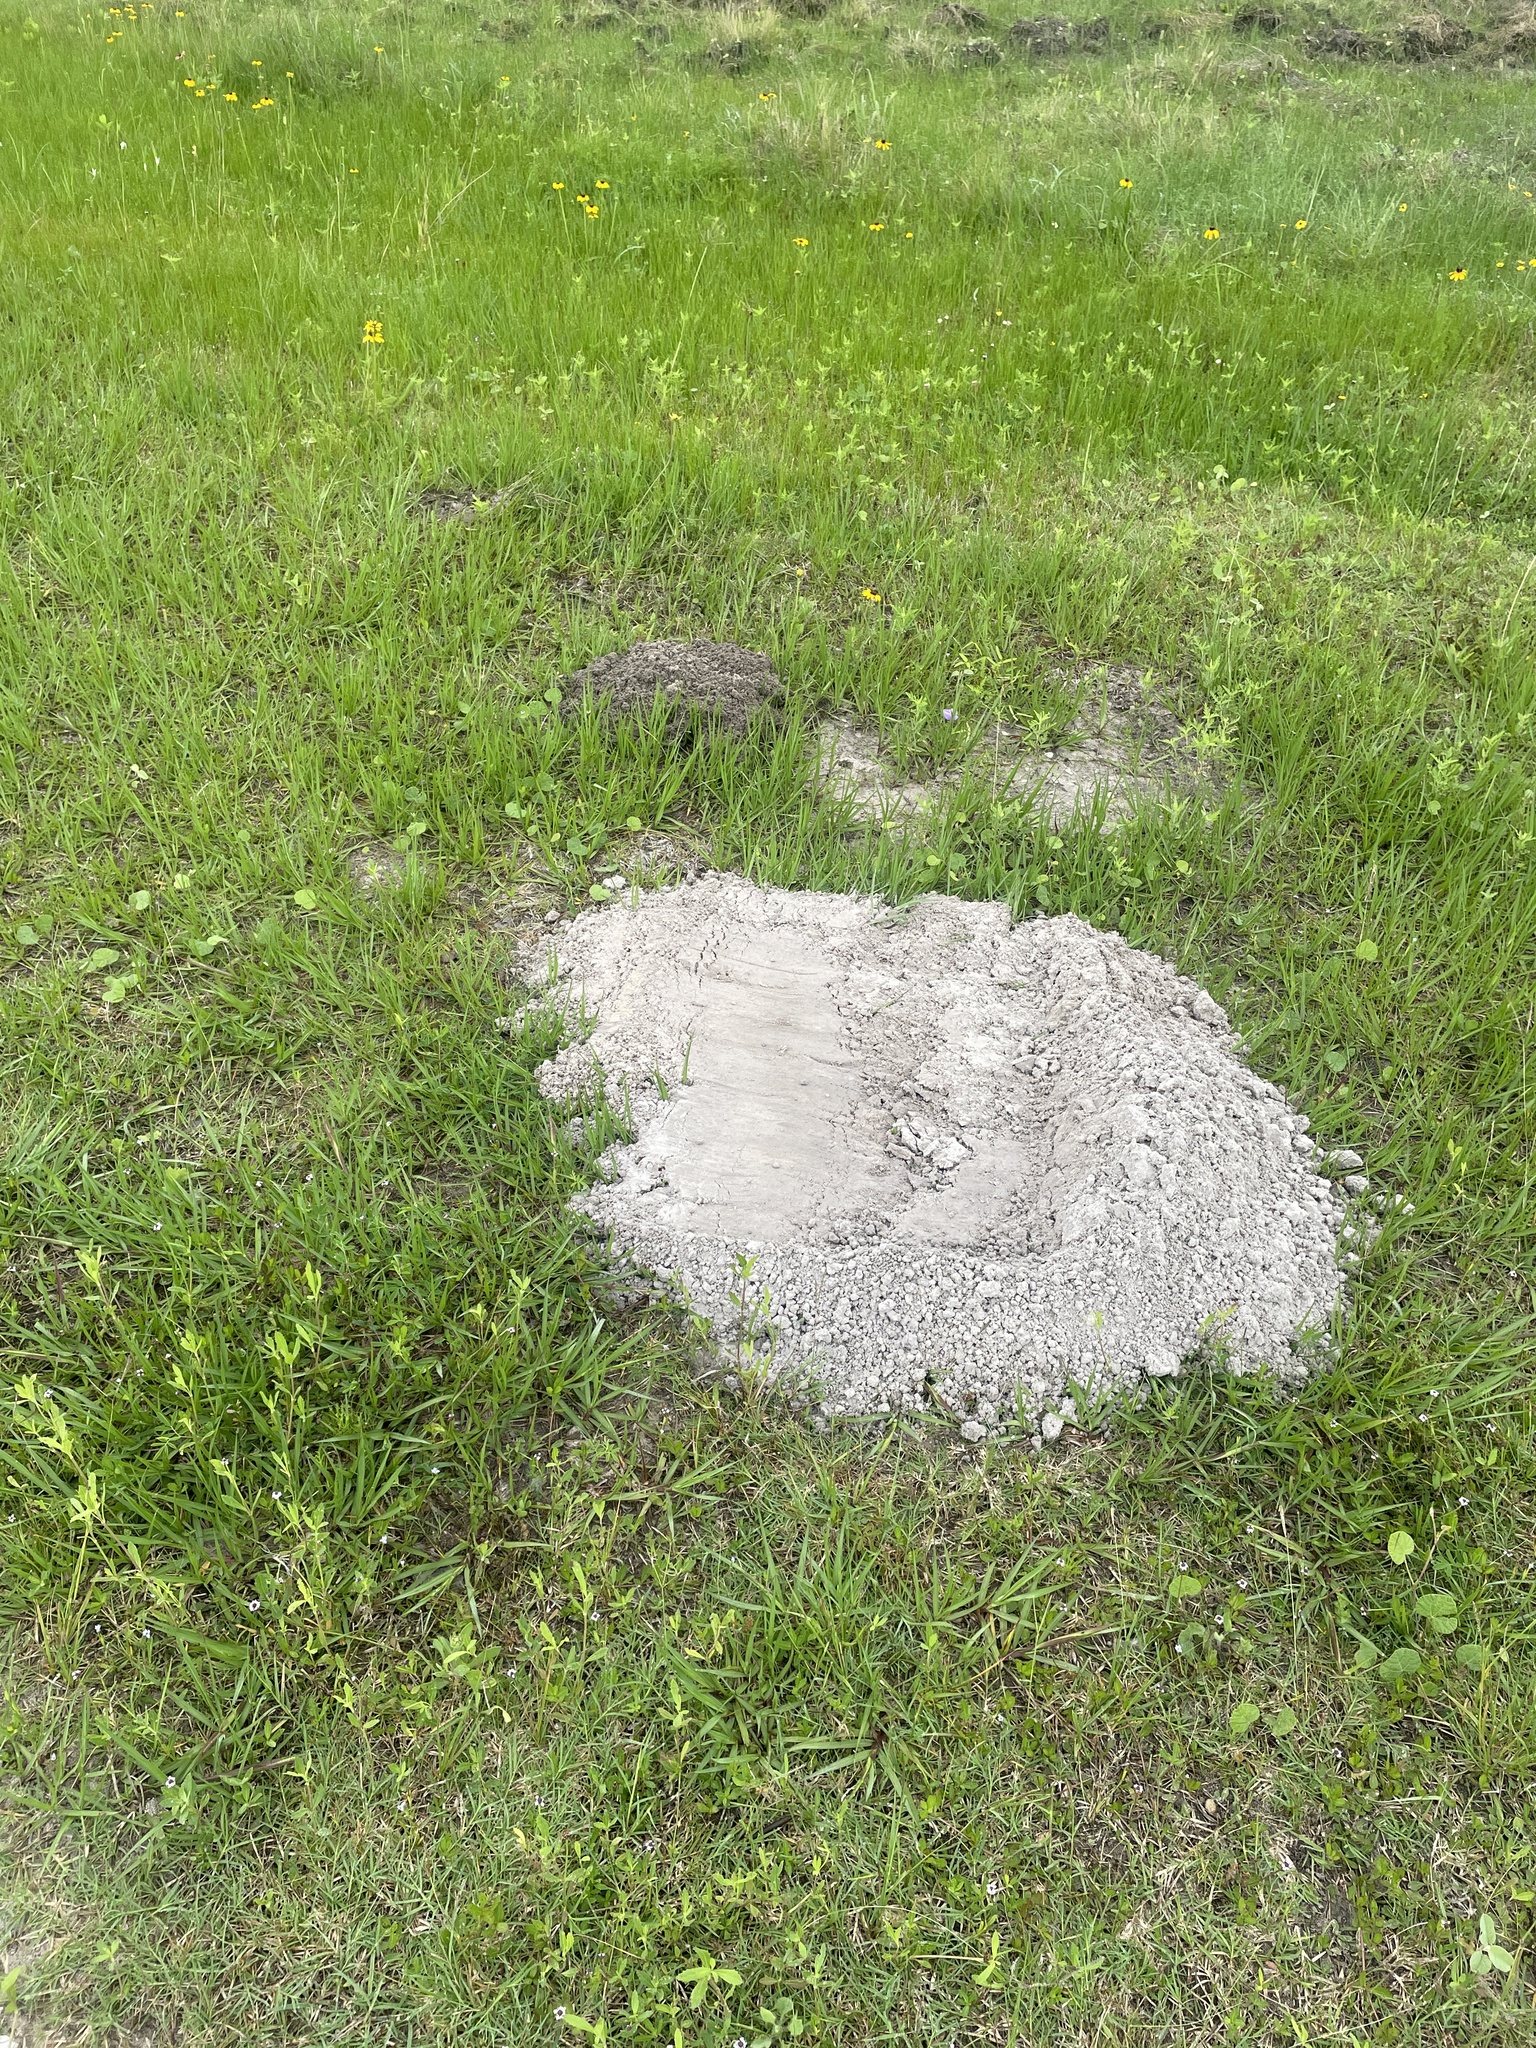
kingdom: Animalia
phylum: Chordata
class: Mammalia
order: Rodentia
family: Geomyidae
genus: Geomys
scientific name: Geomys attwateri
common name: Attwater's pocket gopher
